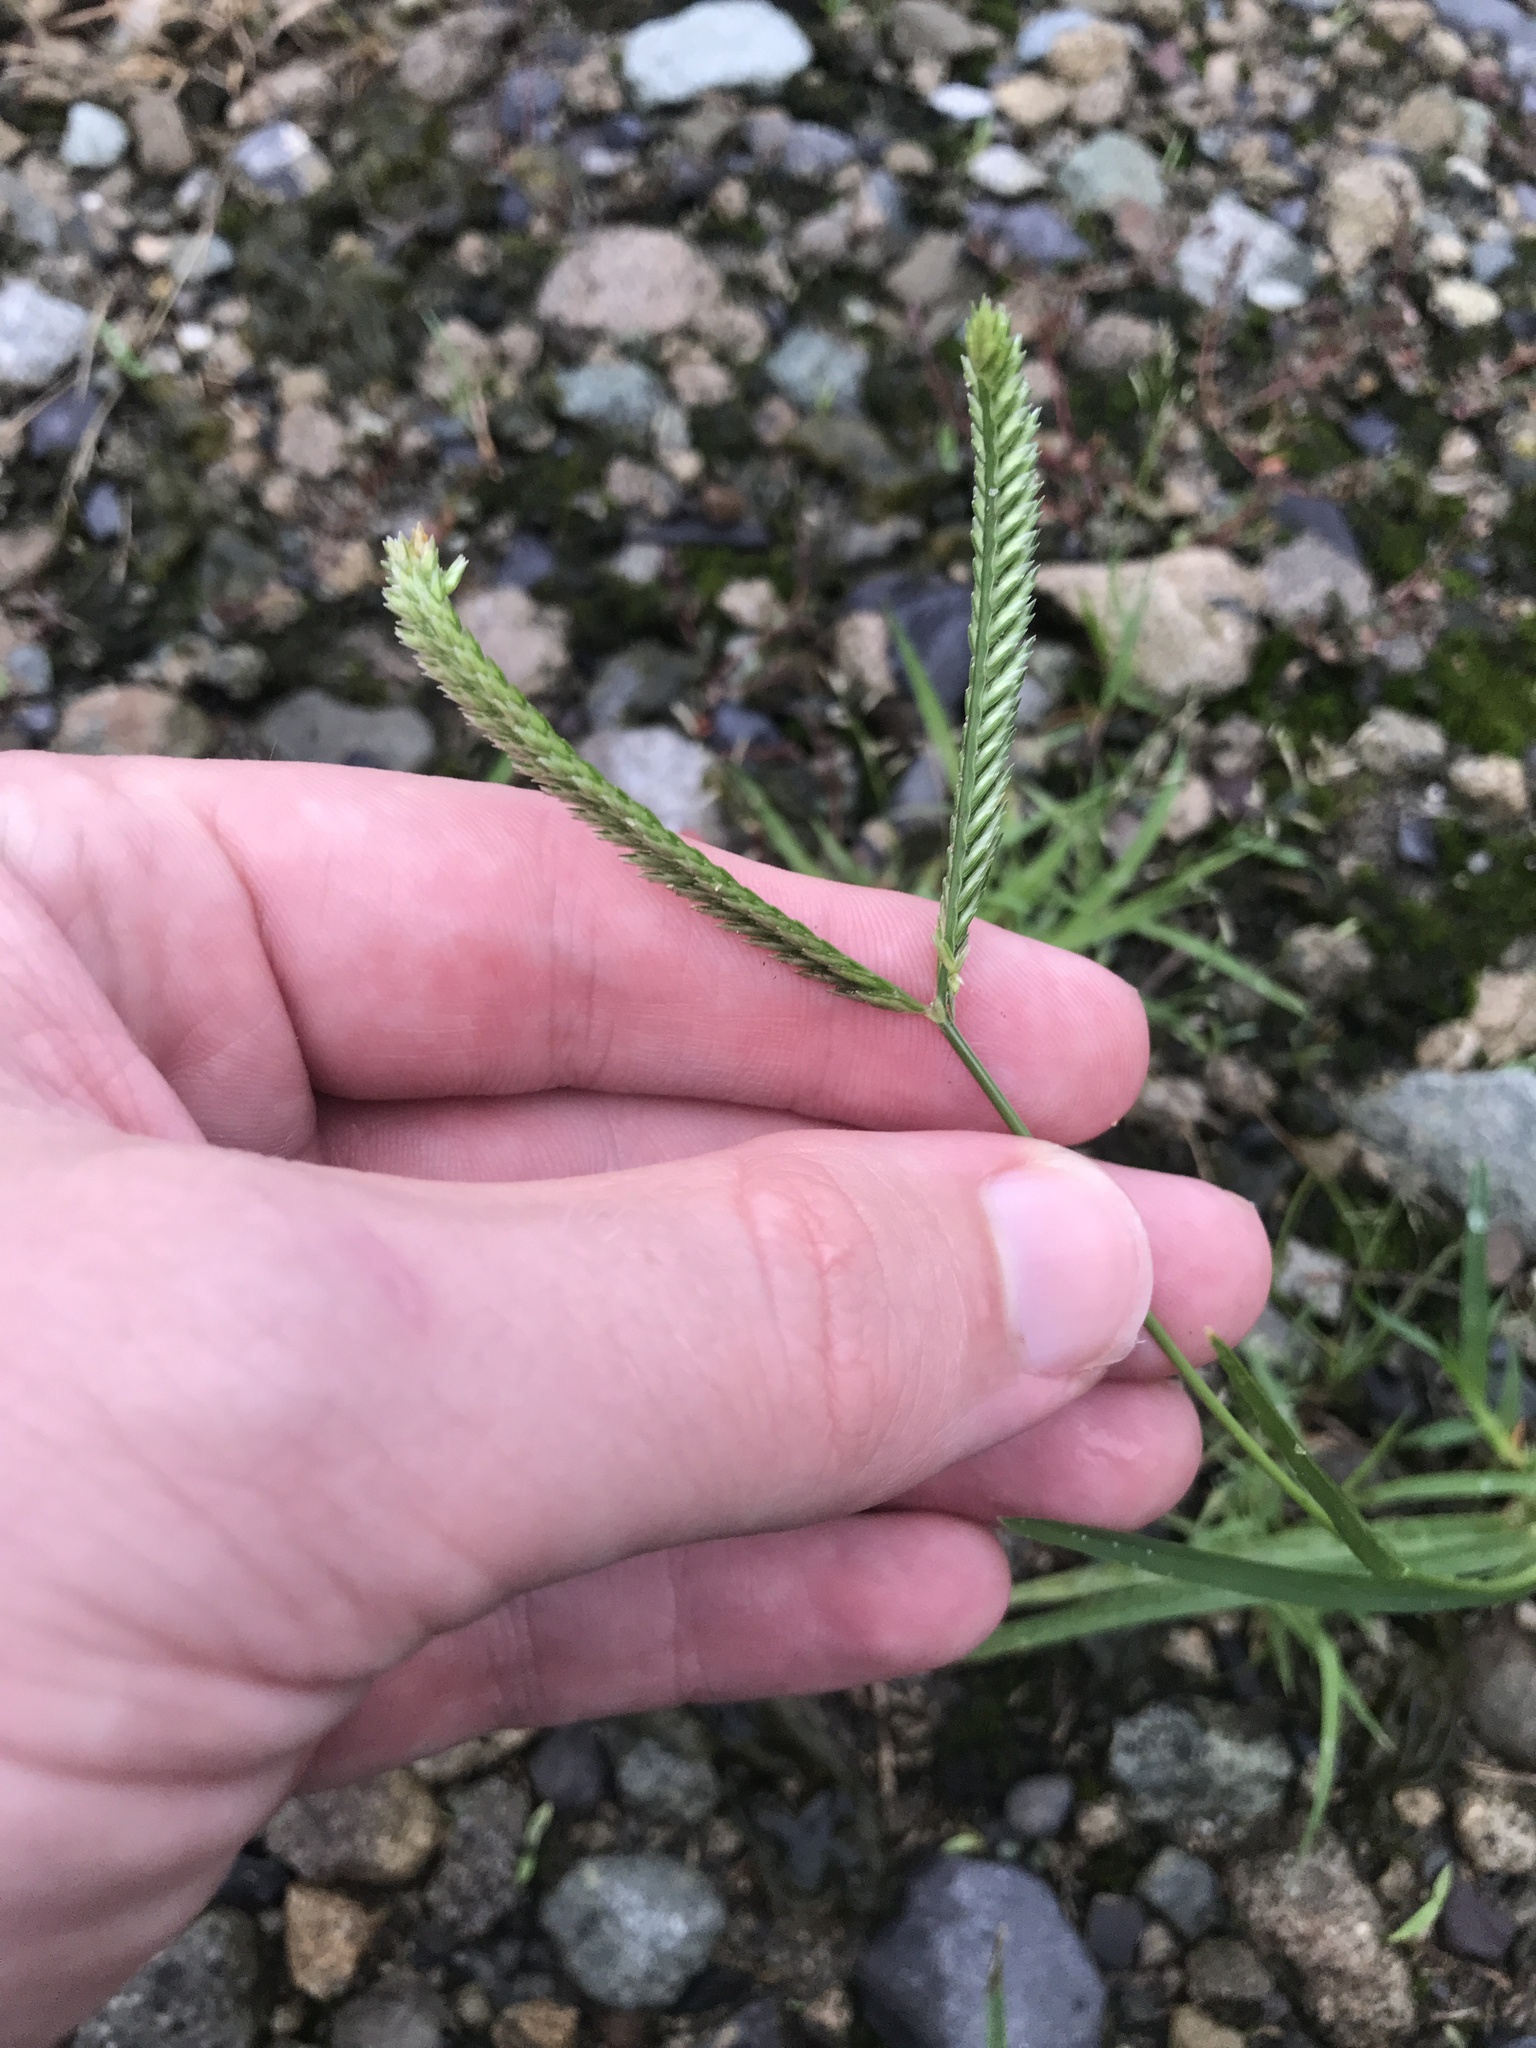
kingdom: Plantae
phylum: Tracheophyta
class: Liliopsida
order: Poales
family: Poaceae
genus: Eleusine
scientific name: Eleusine indica
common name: Yard-grass
